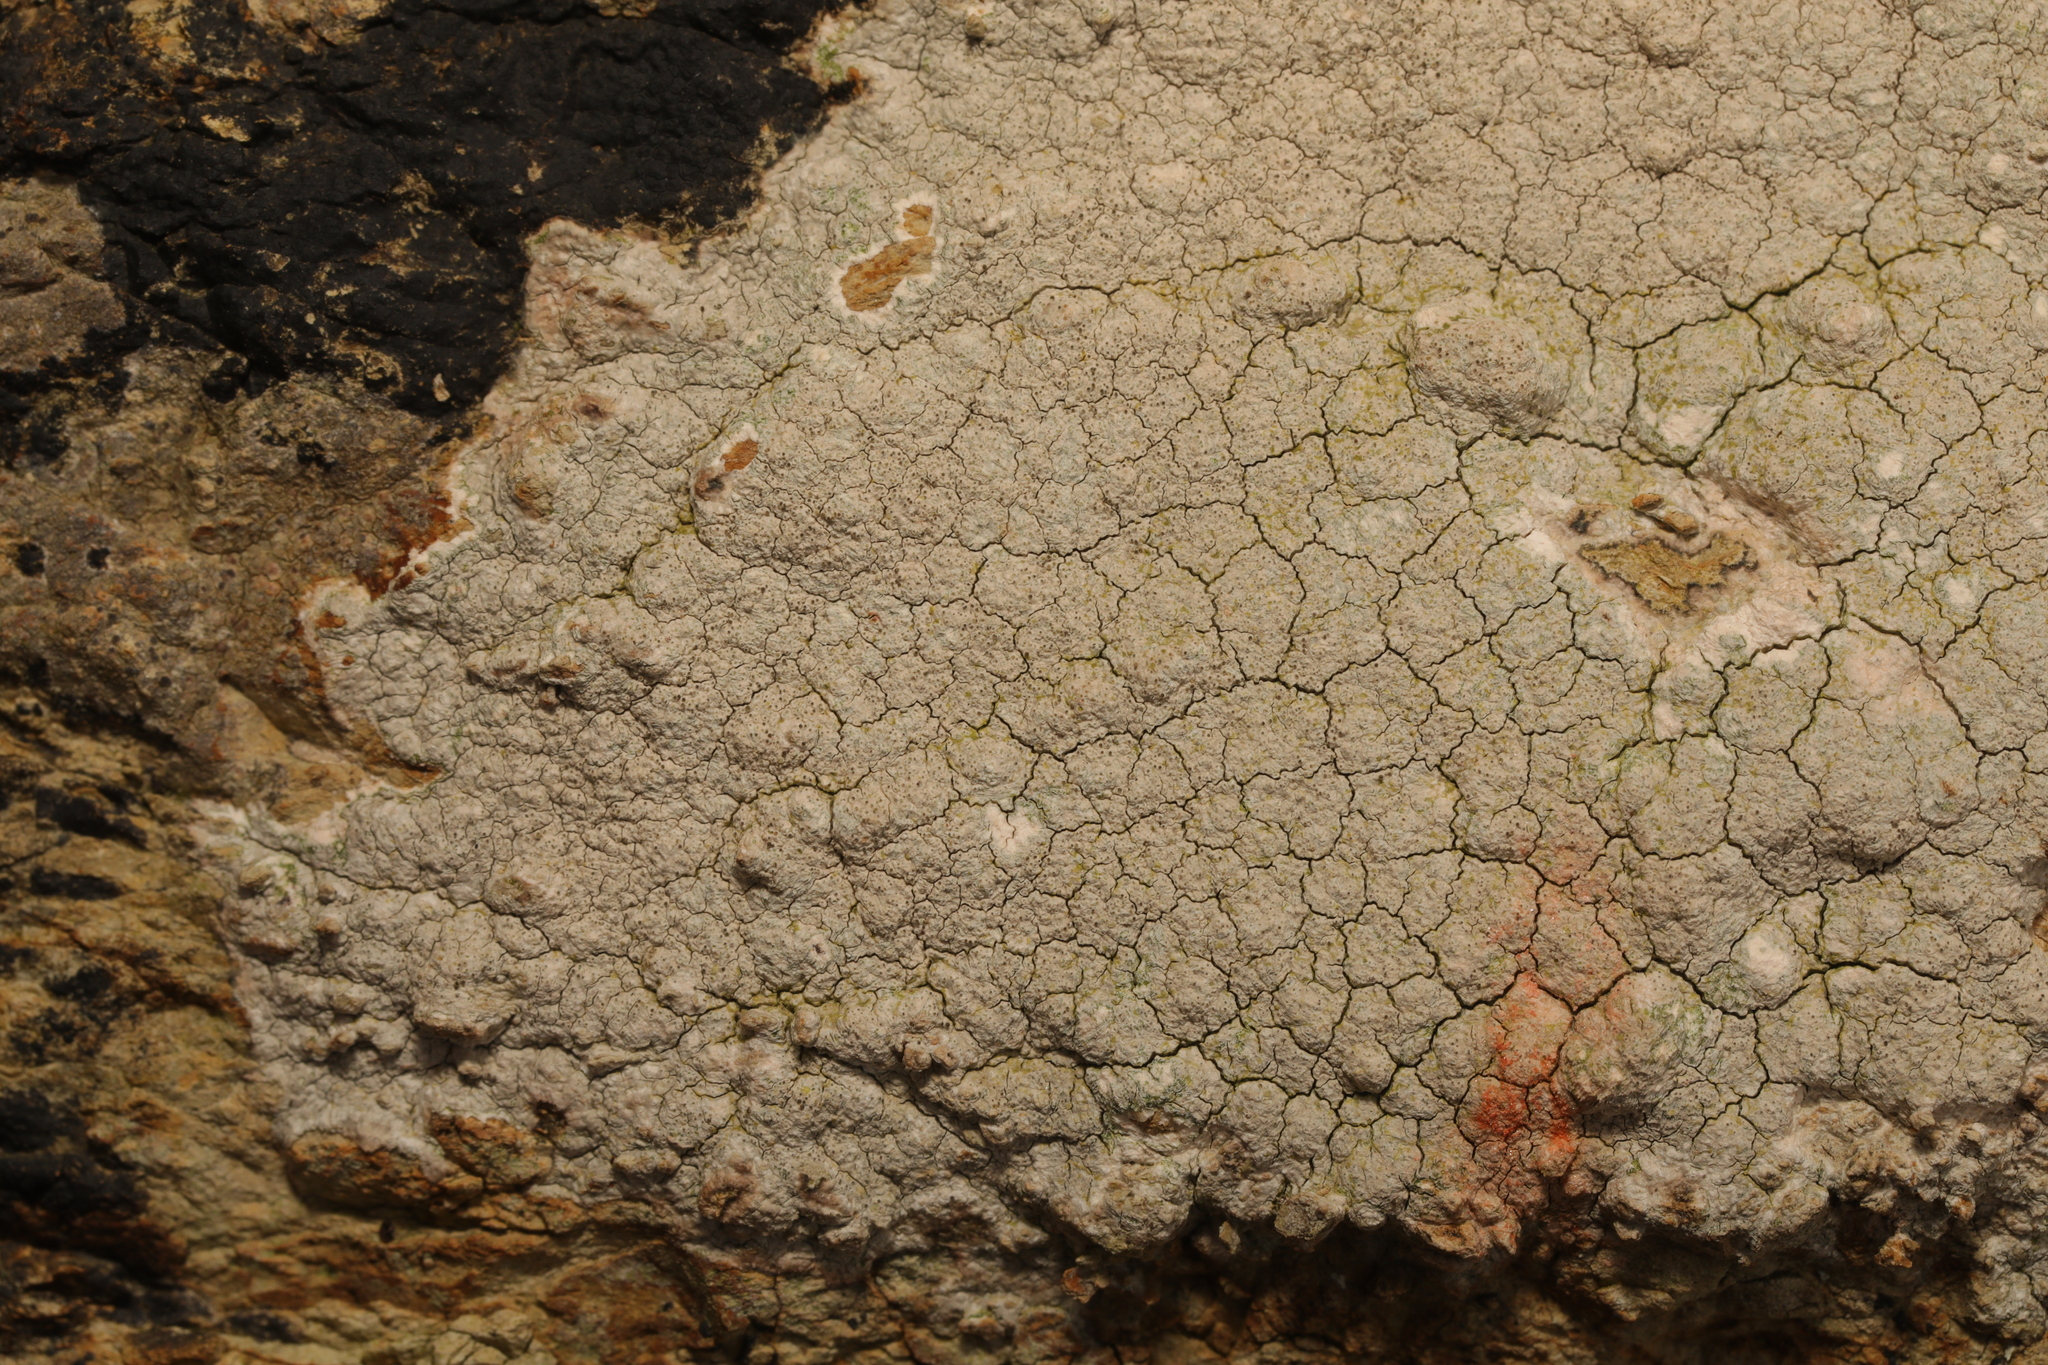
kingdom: Fungi
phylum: Ascomycota
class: Lecanoromycetes
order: Pertusariales
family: Pertusariaceae
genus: Pertusaria
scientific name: Pertusaria pseudocorallina
